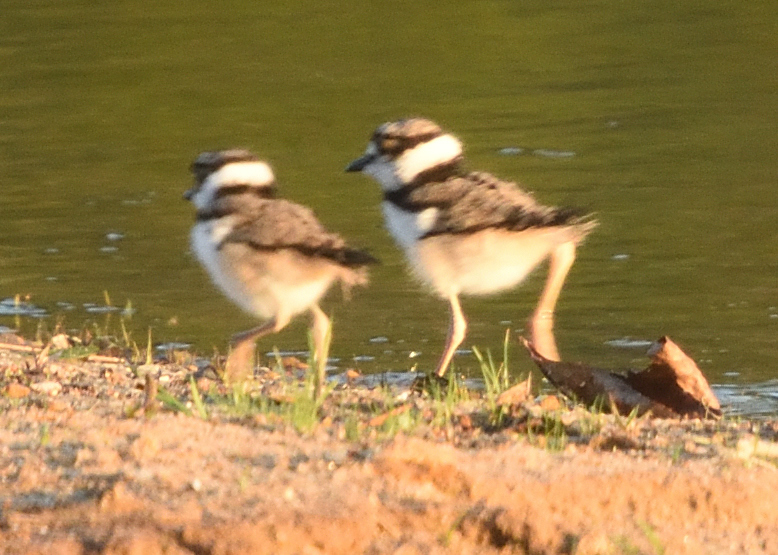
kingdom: Animalia
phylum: Chordata
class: Aves
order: Charadriiformes
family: Charadriidae
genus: Charadrius
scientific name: Charadrius vociferus
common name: Killdeer
